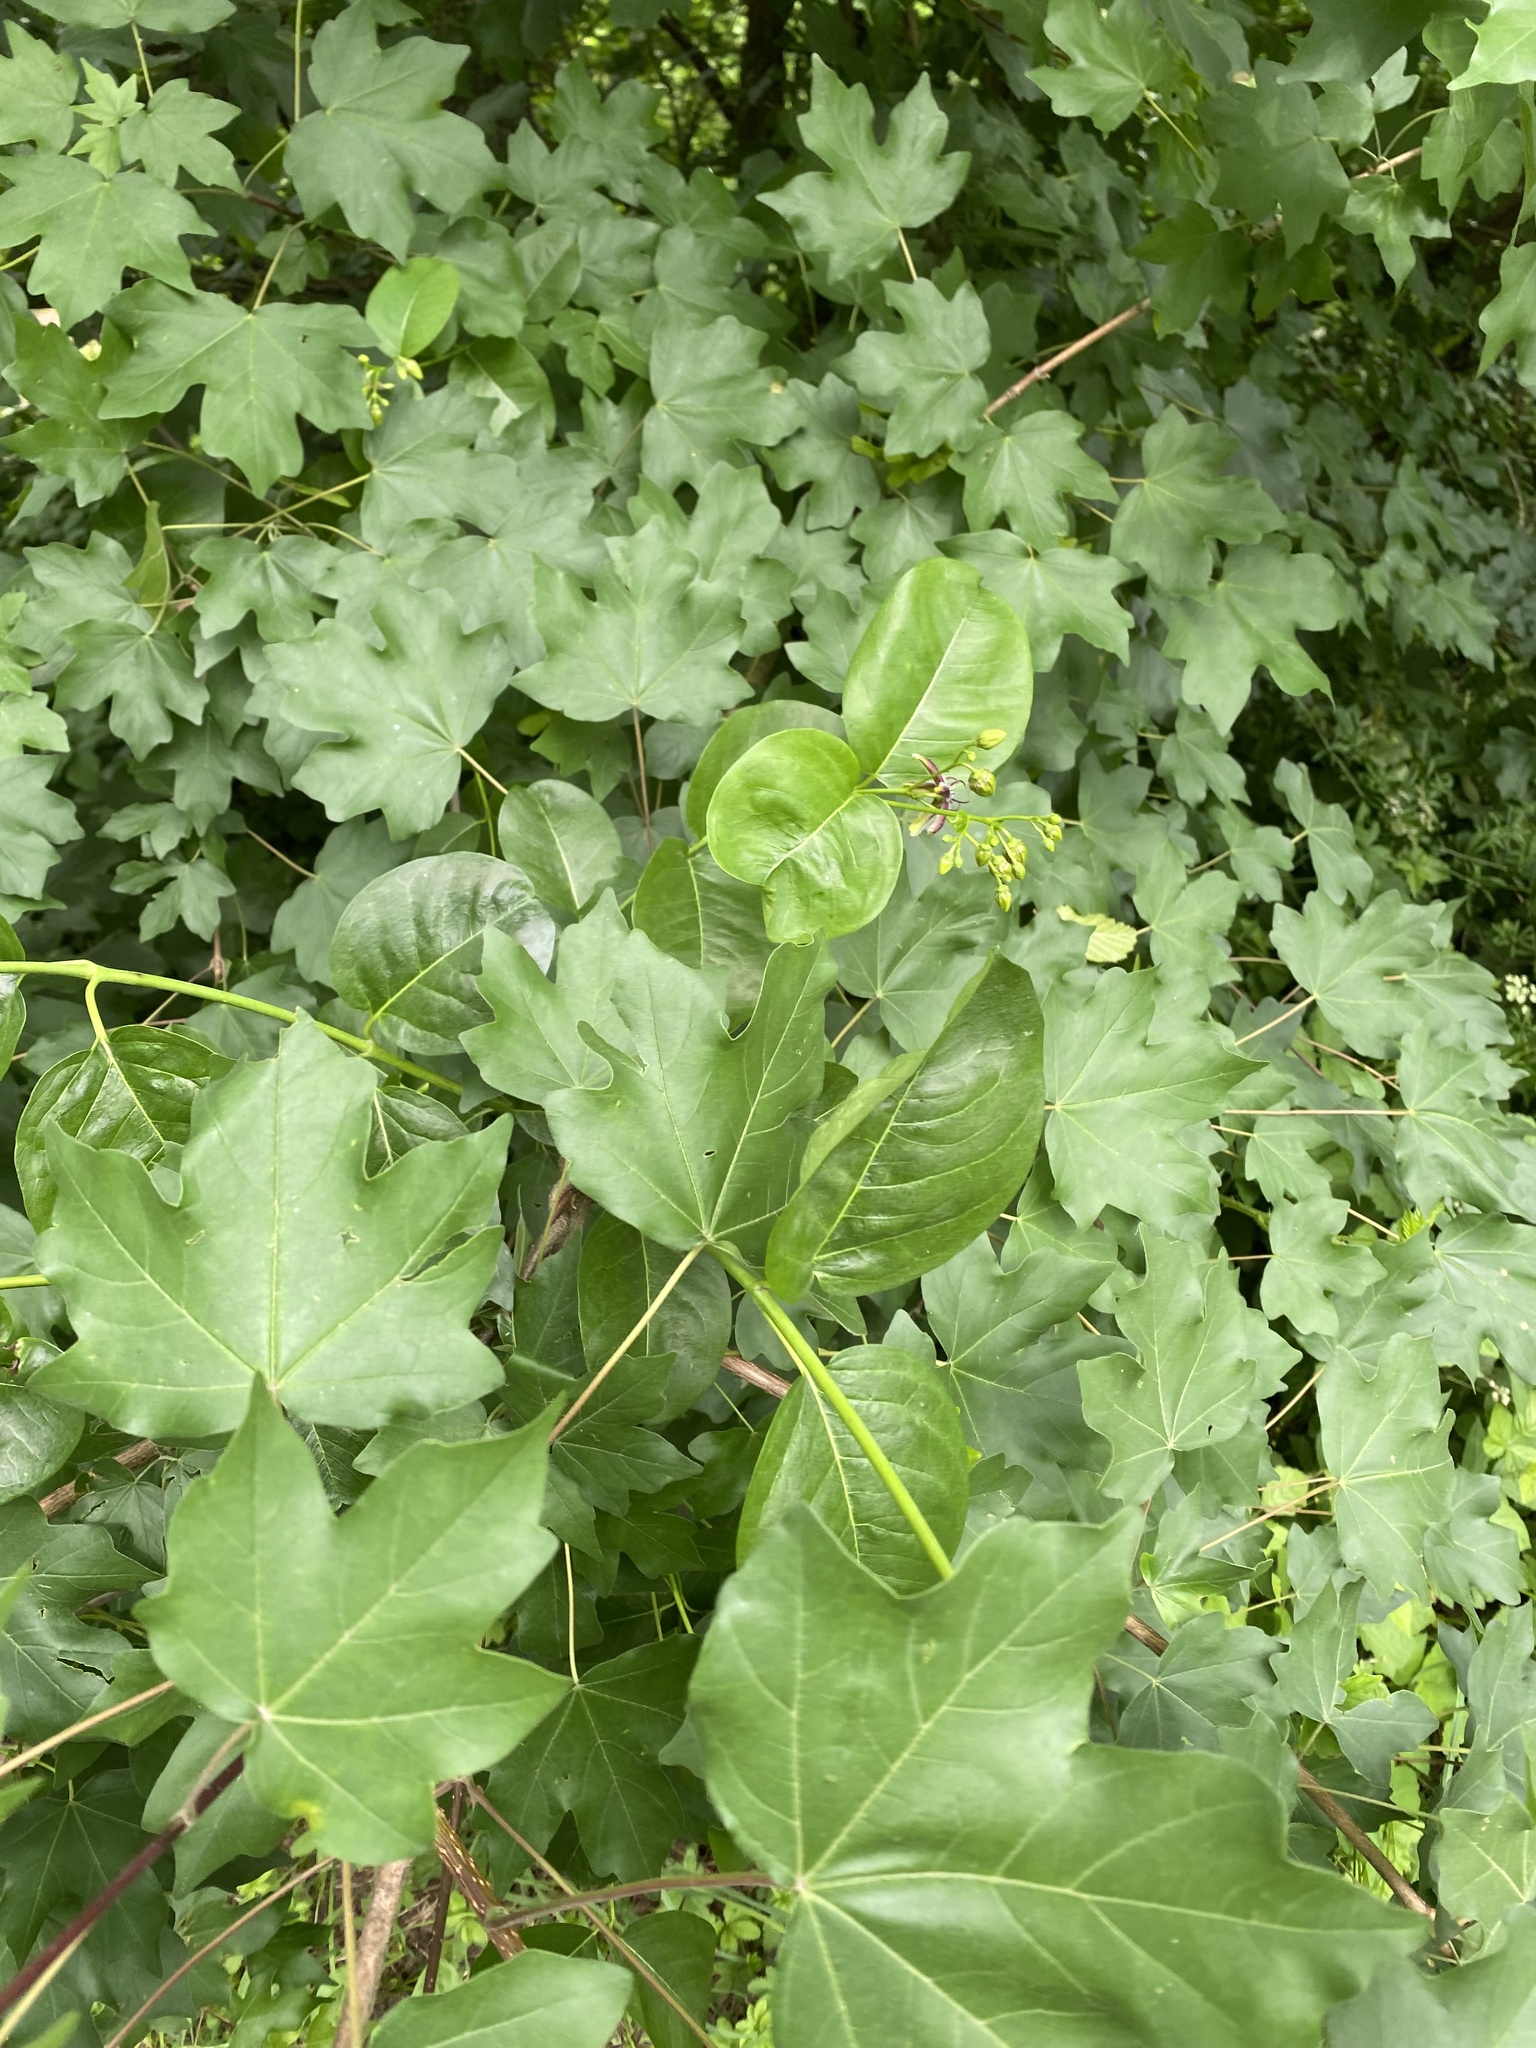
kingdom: Plantae
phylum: Tracheophyta
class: Magnoliopsida
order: Sapindales
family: Sapindaceae
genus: Acer
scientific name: Acer campestre
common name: Field maple
